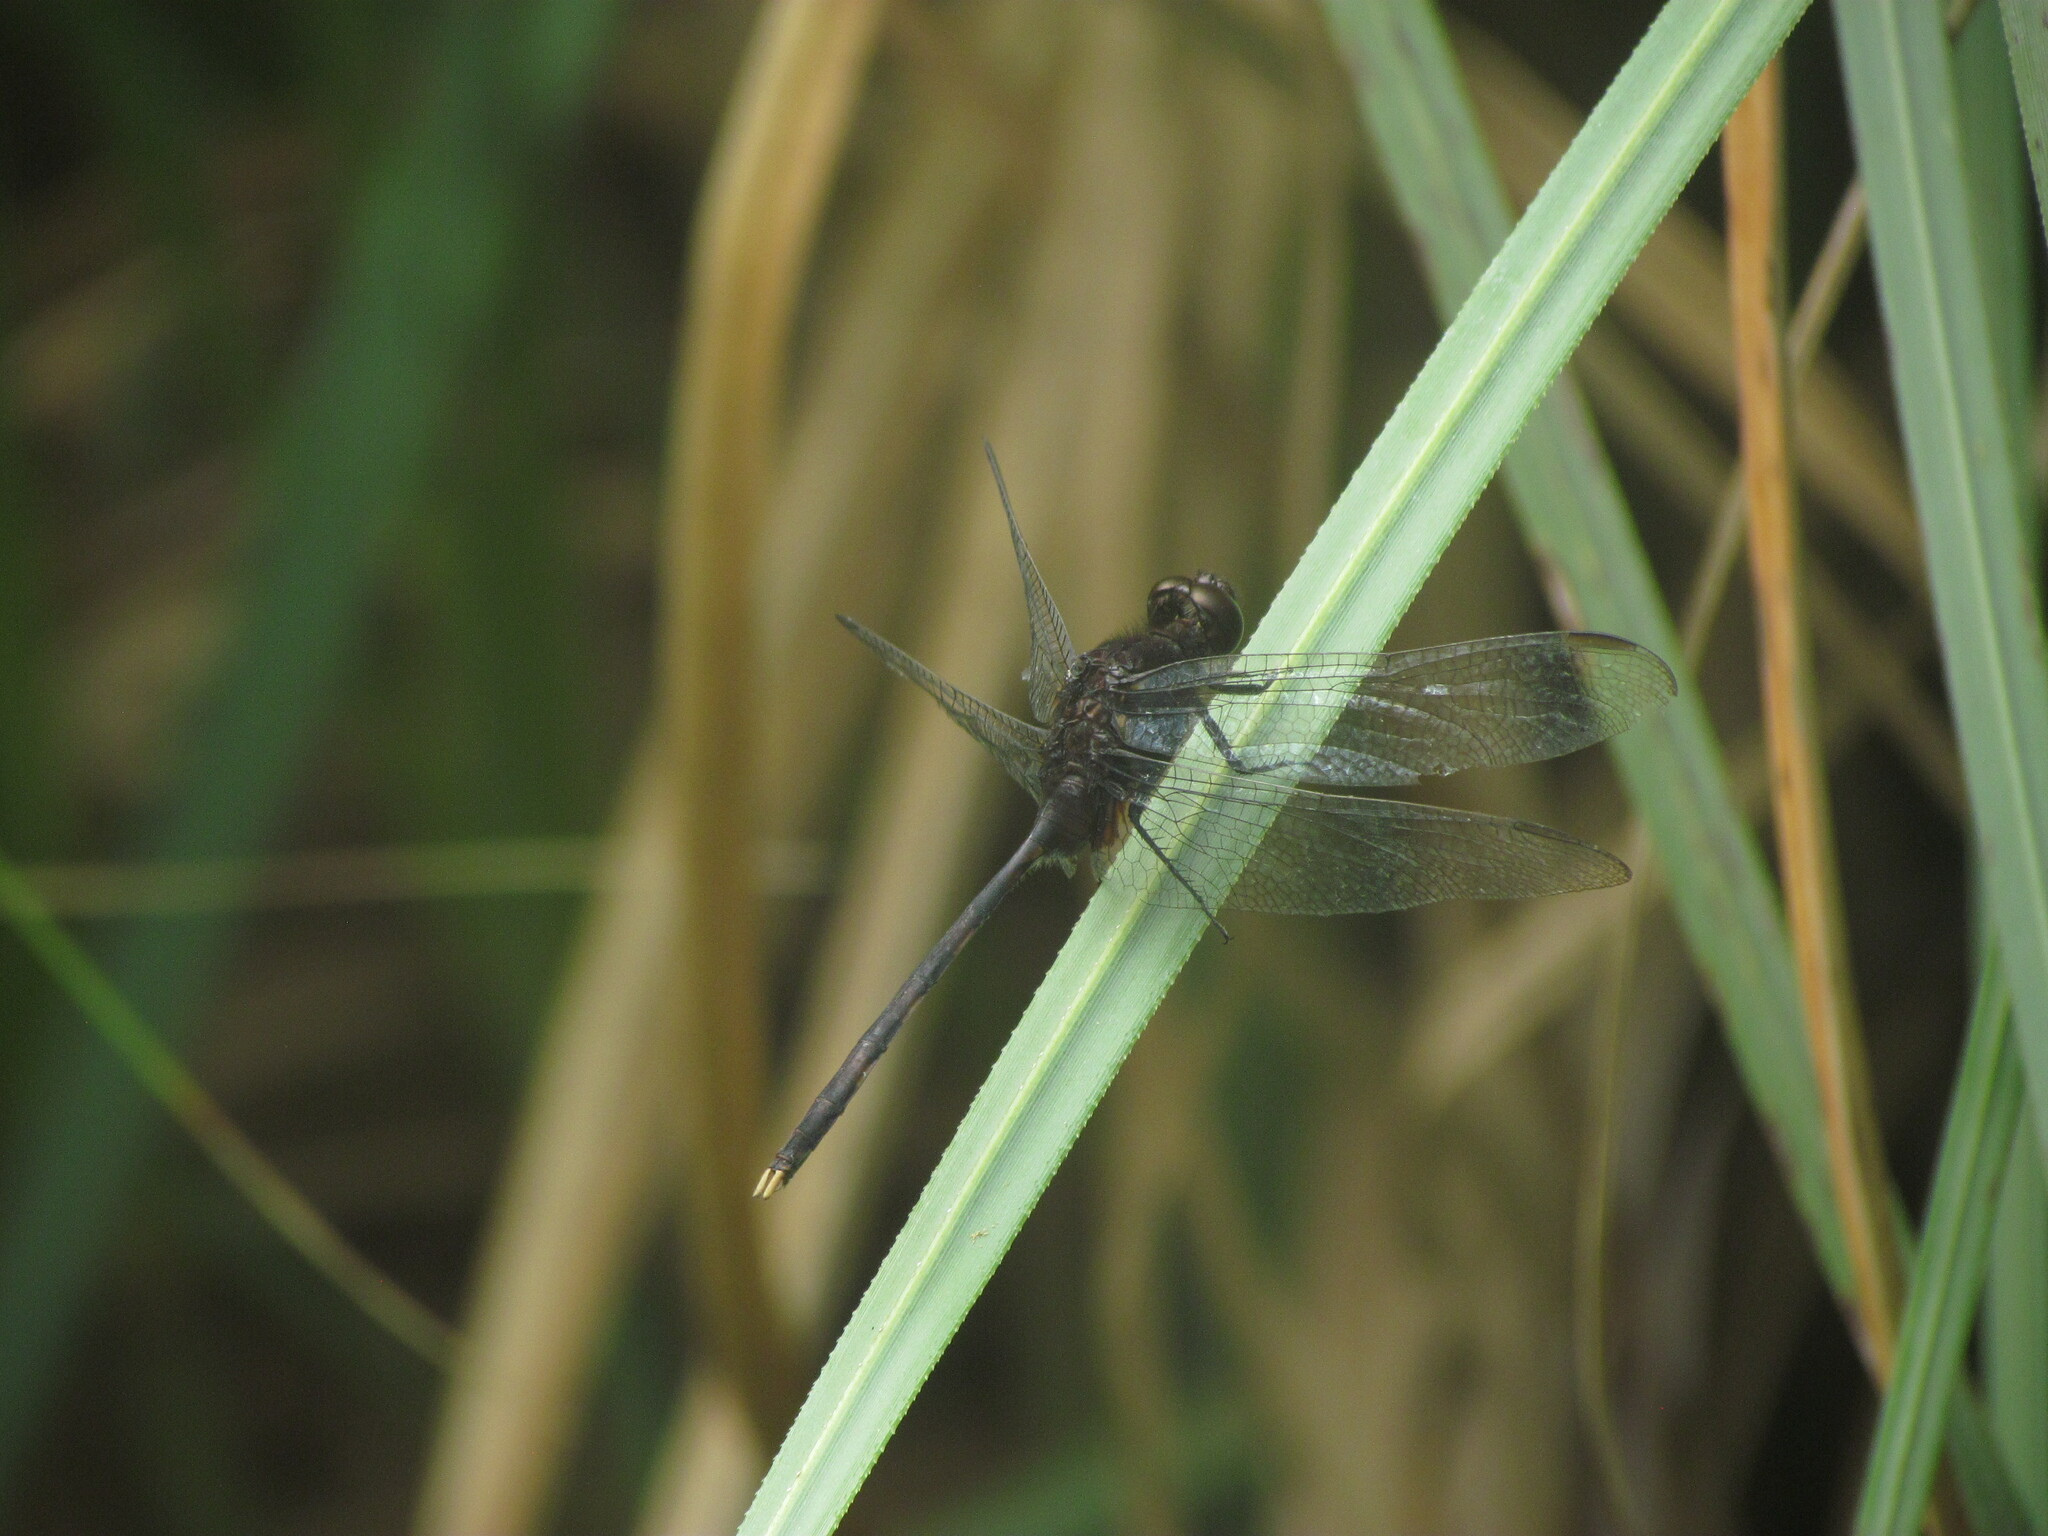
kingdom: Animalia
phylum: Arthropoda
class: Insecta
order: Odonata
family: Libellulidae
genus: Erythemis
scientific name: Erythemis plebeja
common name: Pin-tailed pondhawk
